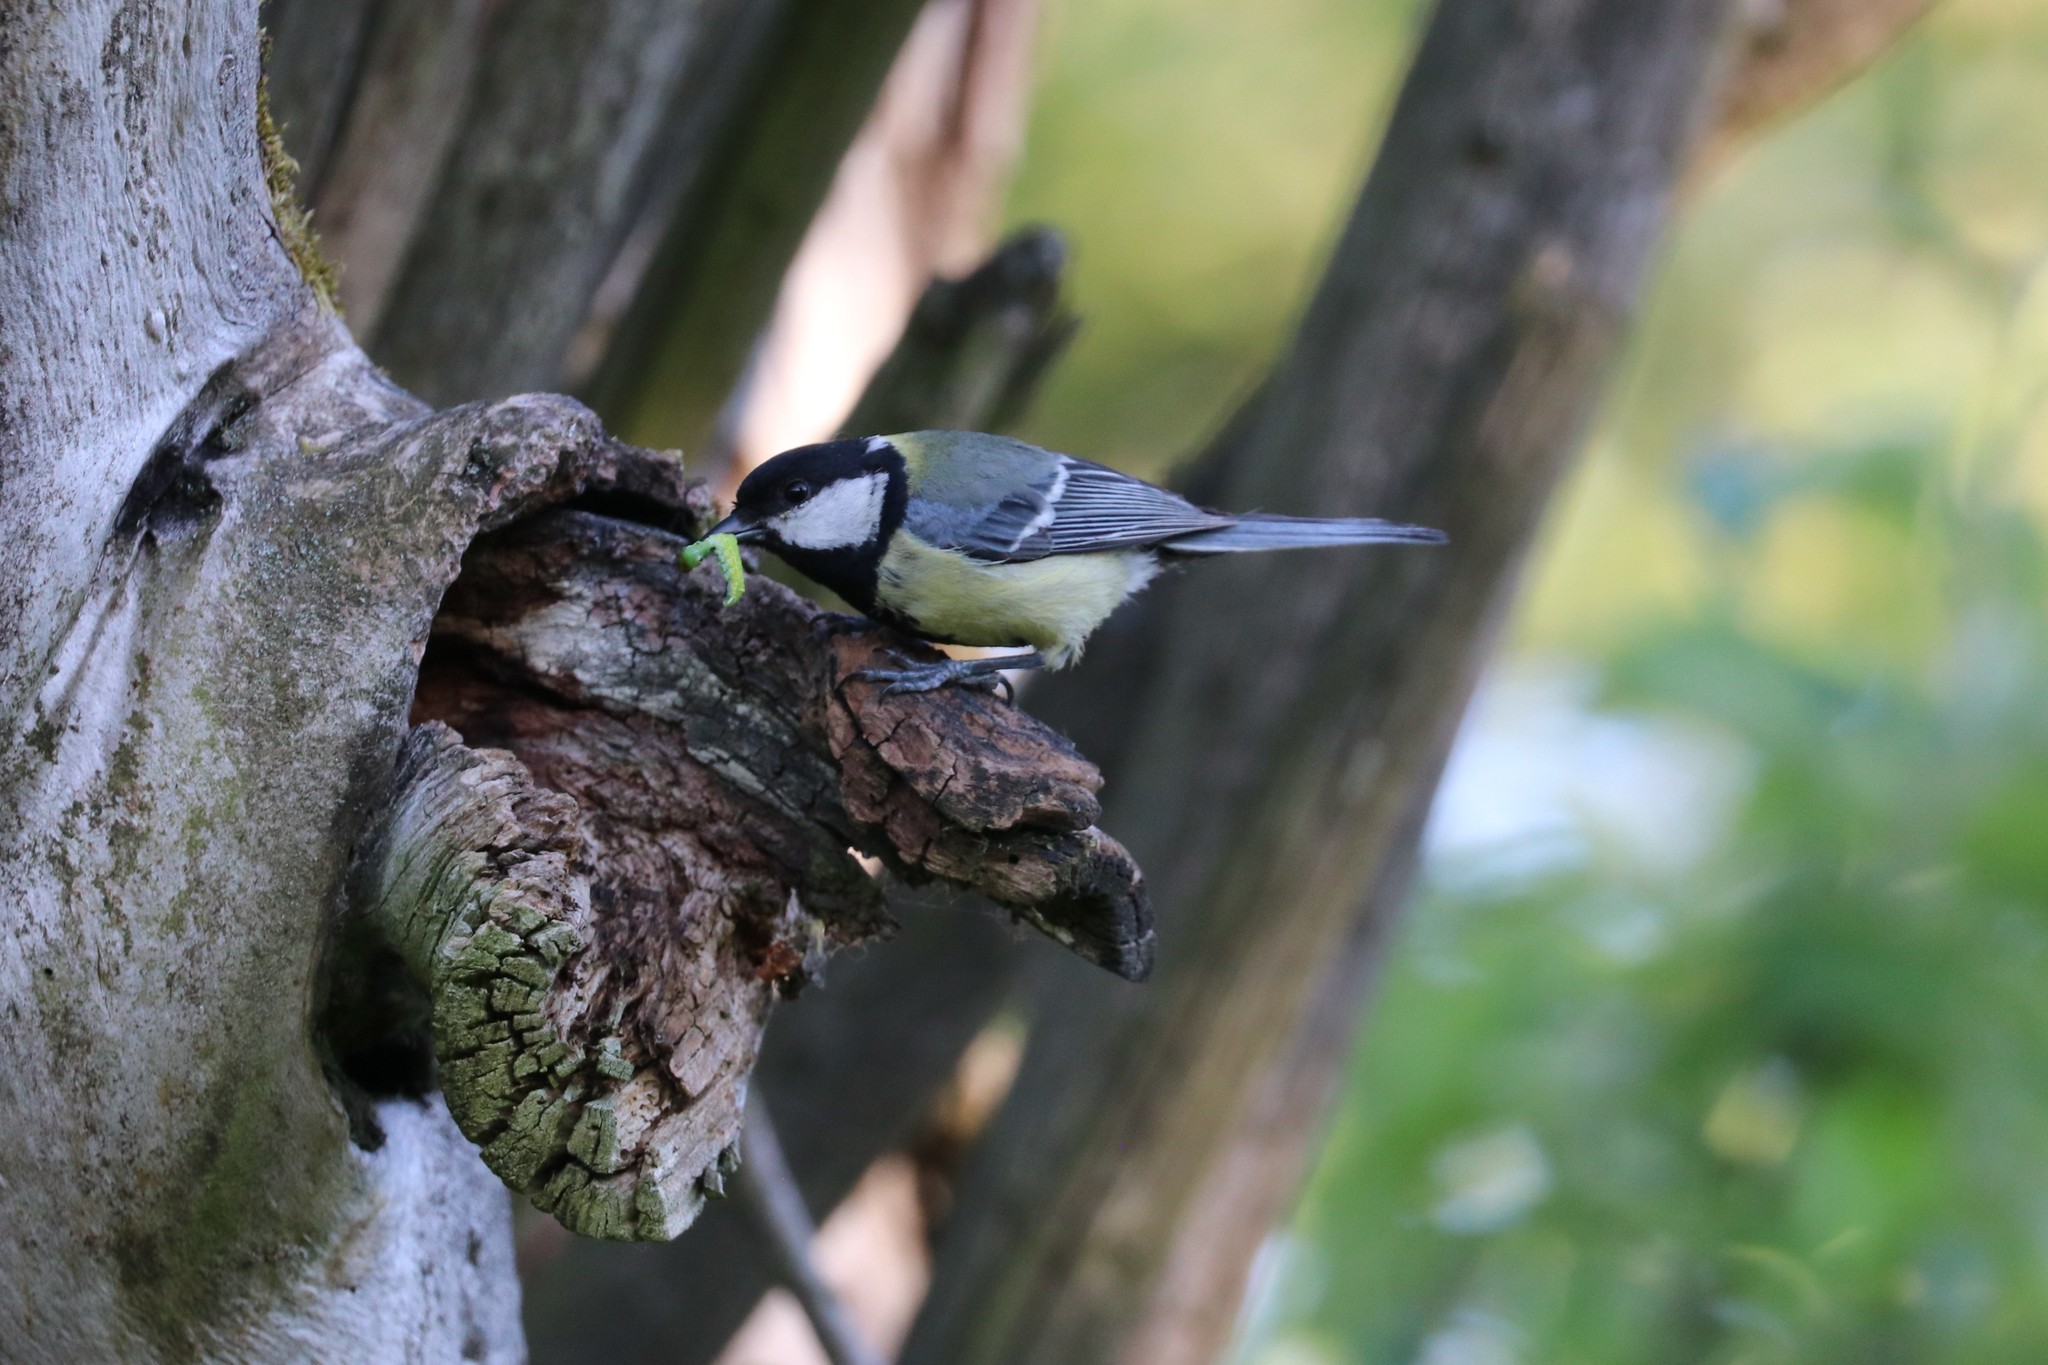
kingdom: Animalia
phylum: Chordata
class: Aves
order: Passeriformes
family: Paridae
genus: Parus
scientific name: Parus major
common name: Great tit
